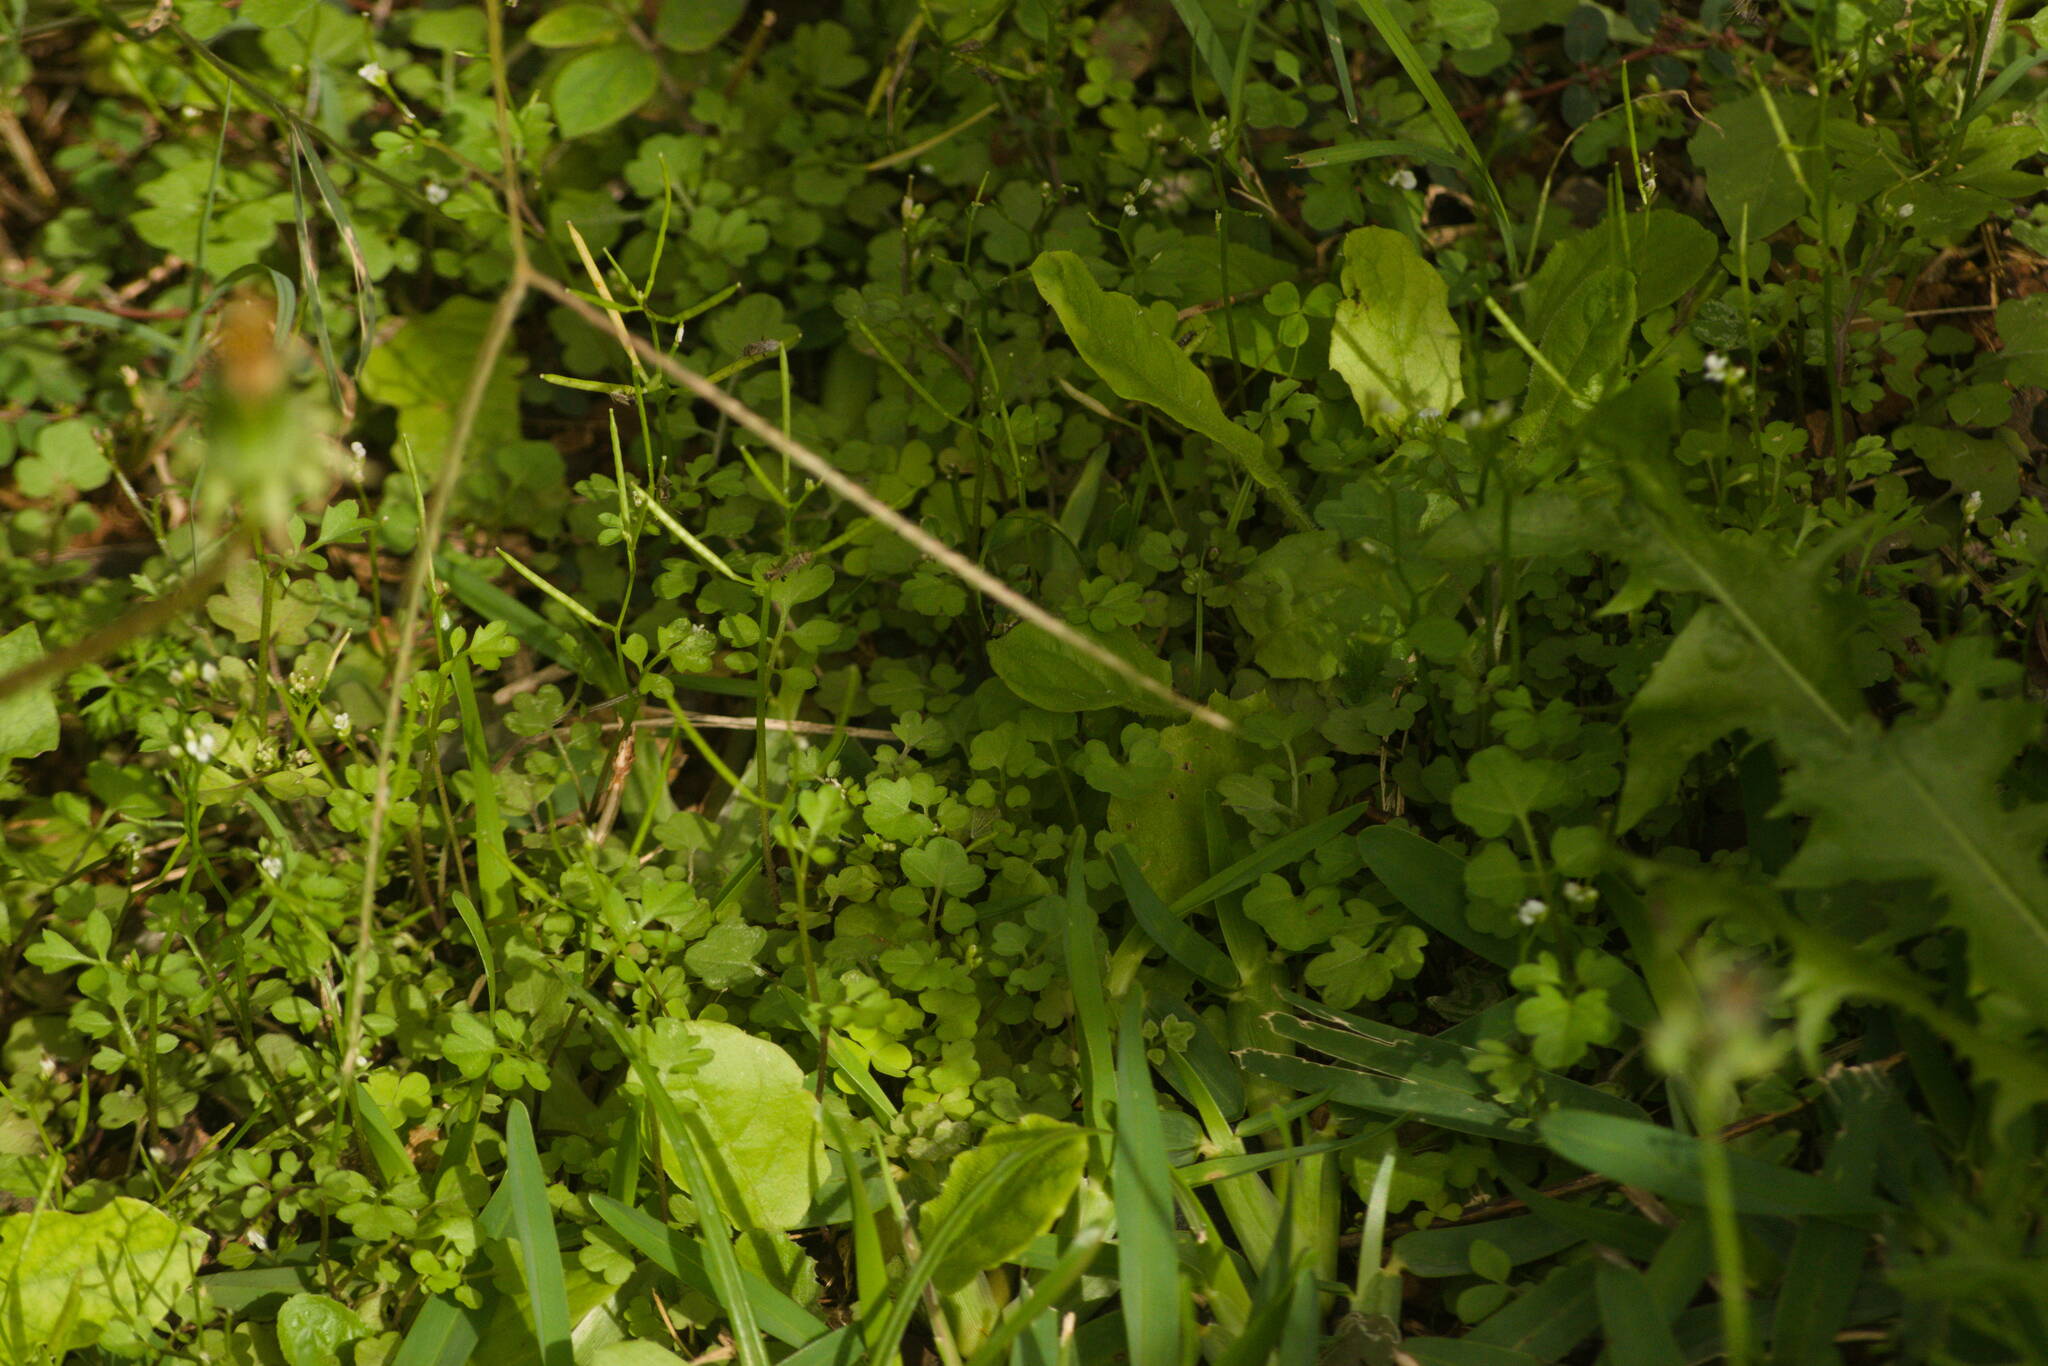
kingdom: Plantae
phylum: Tracheophyta
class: Magnoliopsida
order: Brassicales
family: Brassicaceae
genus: Cardamine
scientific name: Cardamine occulta
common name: Asian wavy bittercress
